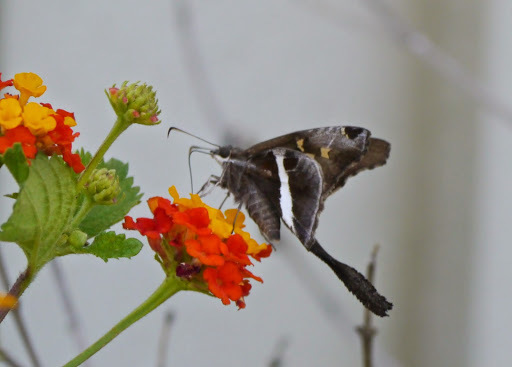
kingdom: Animalia
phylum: Arthropoda
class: Insecta
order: Lepidoptera
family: Hesperiidae
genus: Chioides
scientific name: Chioides catillus
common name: Silverbanded skipper
